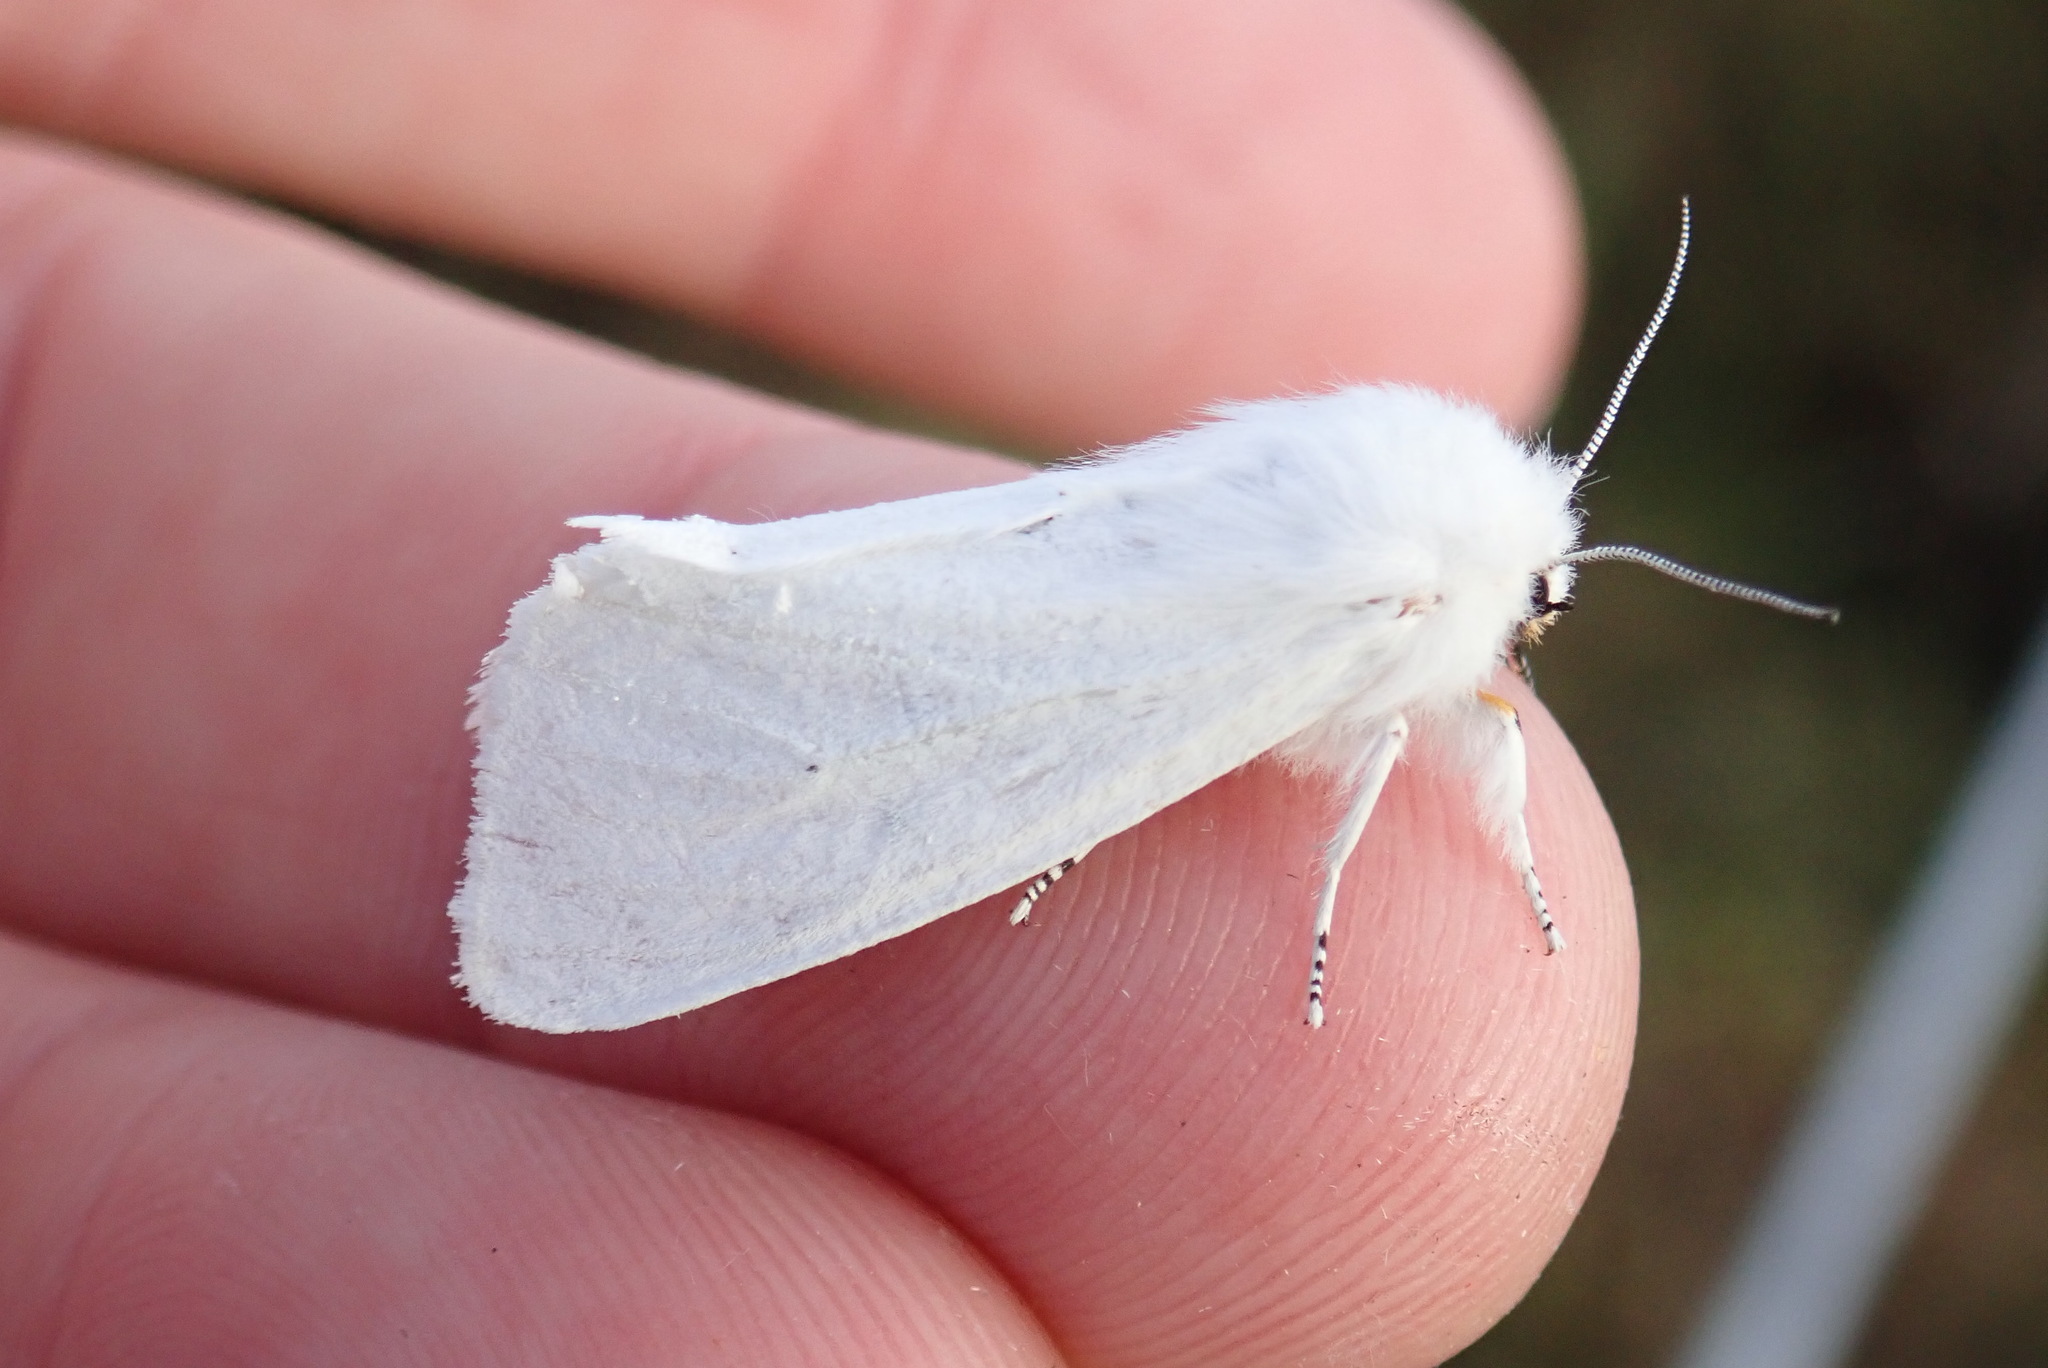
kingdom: Animalia
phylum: Arthropoda
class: Insecta
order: Lepidoptera
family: Erebidae
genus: Spilosoma
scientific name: Spilosoma virginica
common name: Virginia tiger moth
